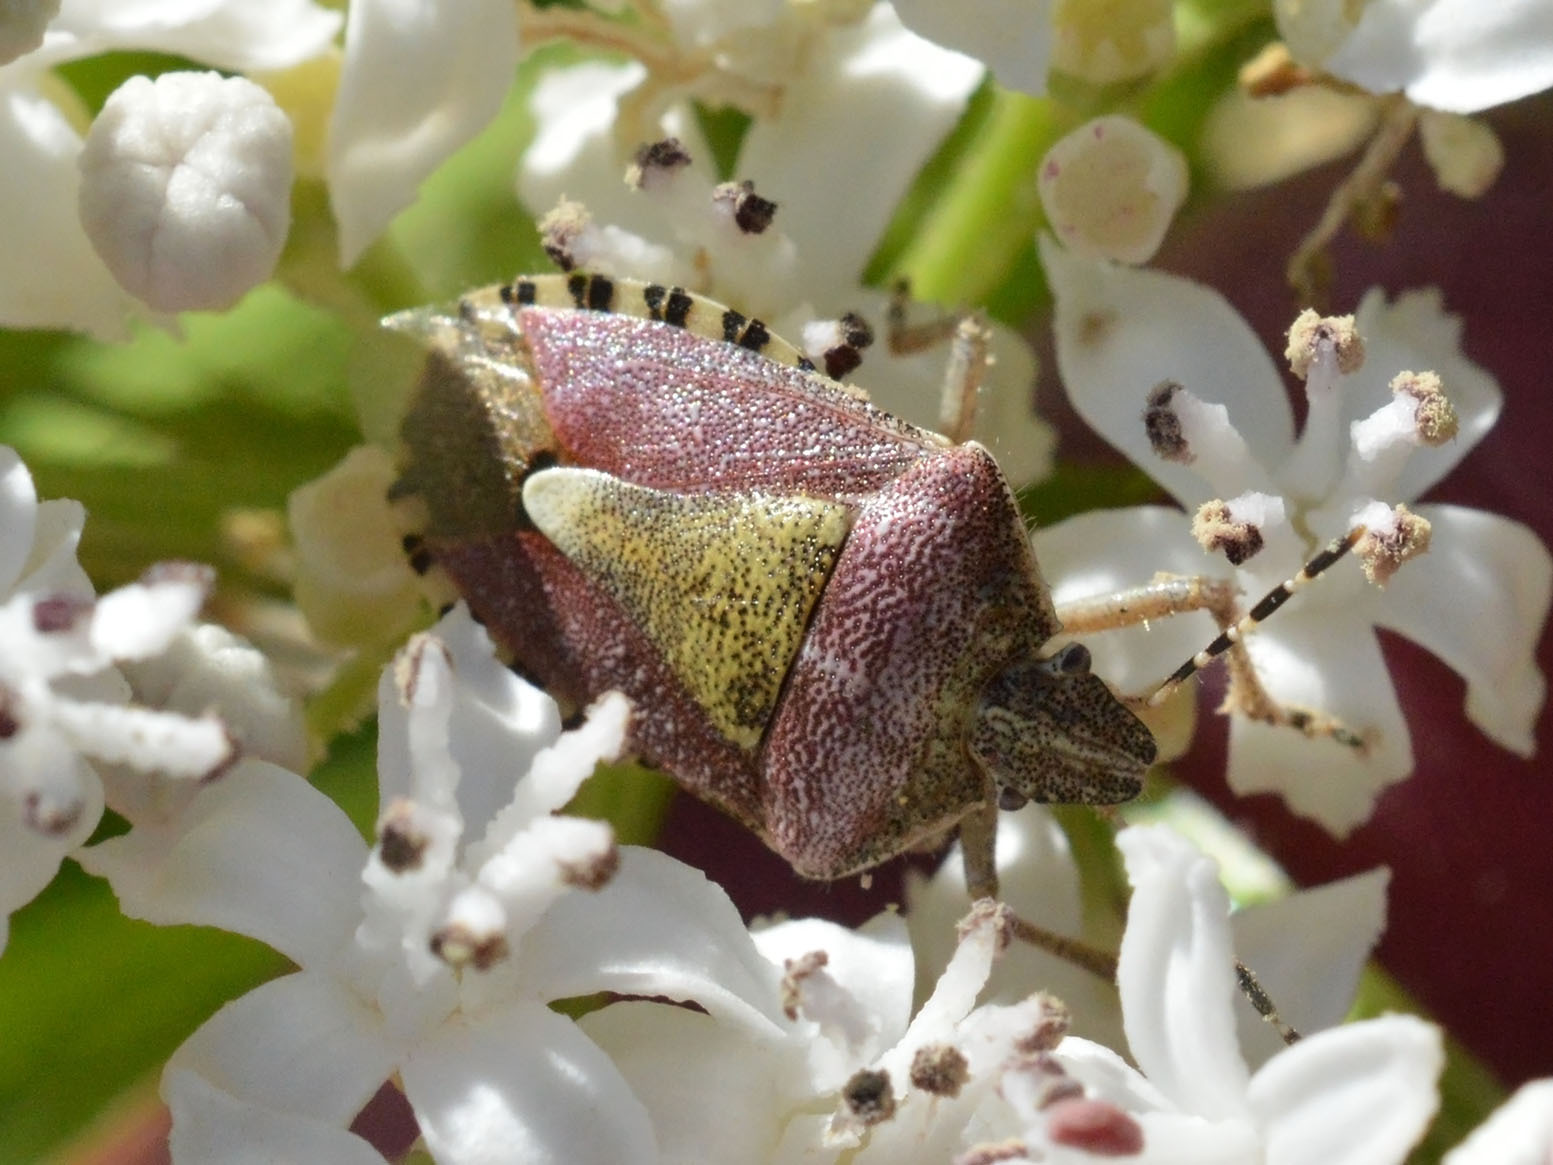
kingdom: Animalia
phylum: Arthropoda
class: Insecta
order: Hemiptera
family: Pentatomidae
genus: Dolycoris
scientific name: Dolycoris baccarum
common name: Sloe bug
